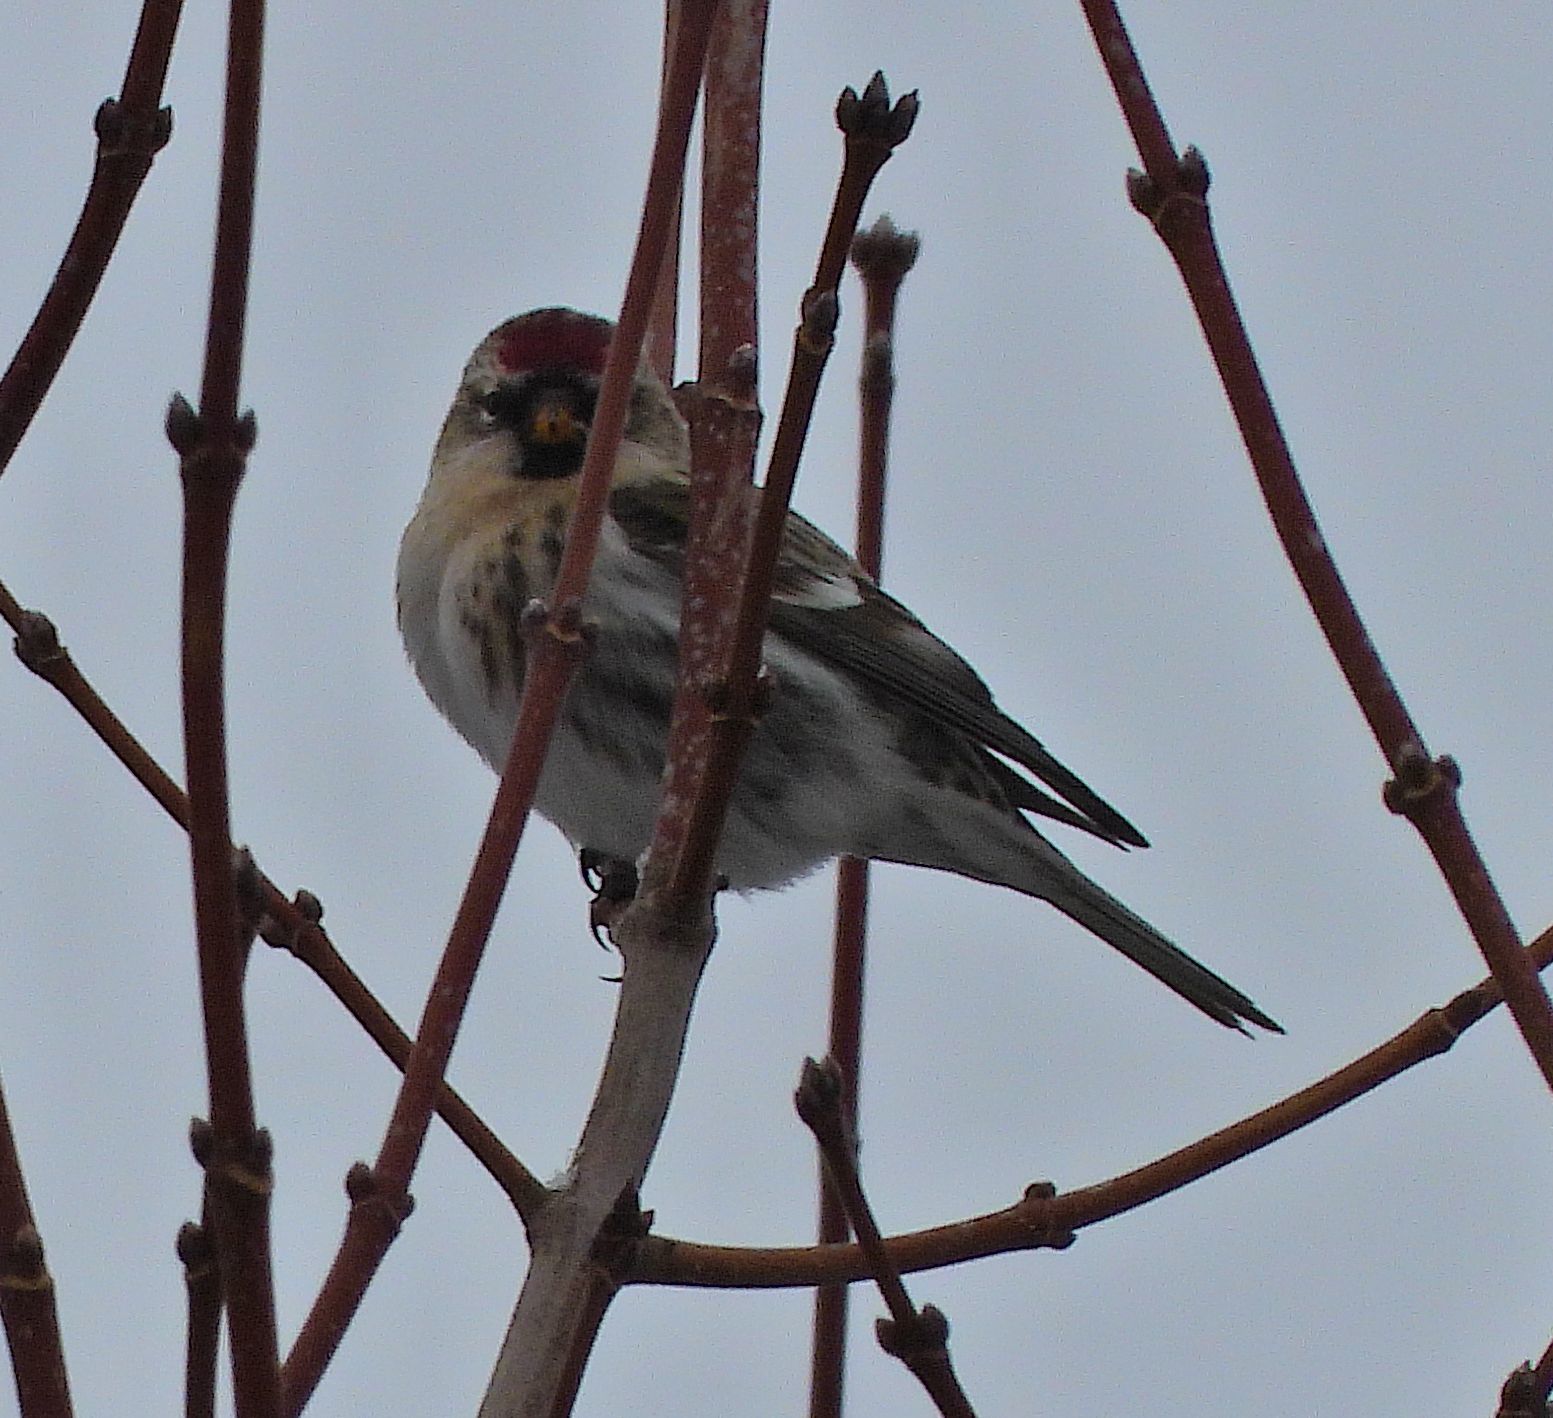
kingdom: Animalia
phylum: Chordata
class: Aves
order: Passeriformes
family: Fringillidae
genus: Acanthis
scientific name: Acanthis flammea
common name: Common redpoll
